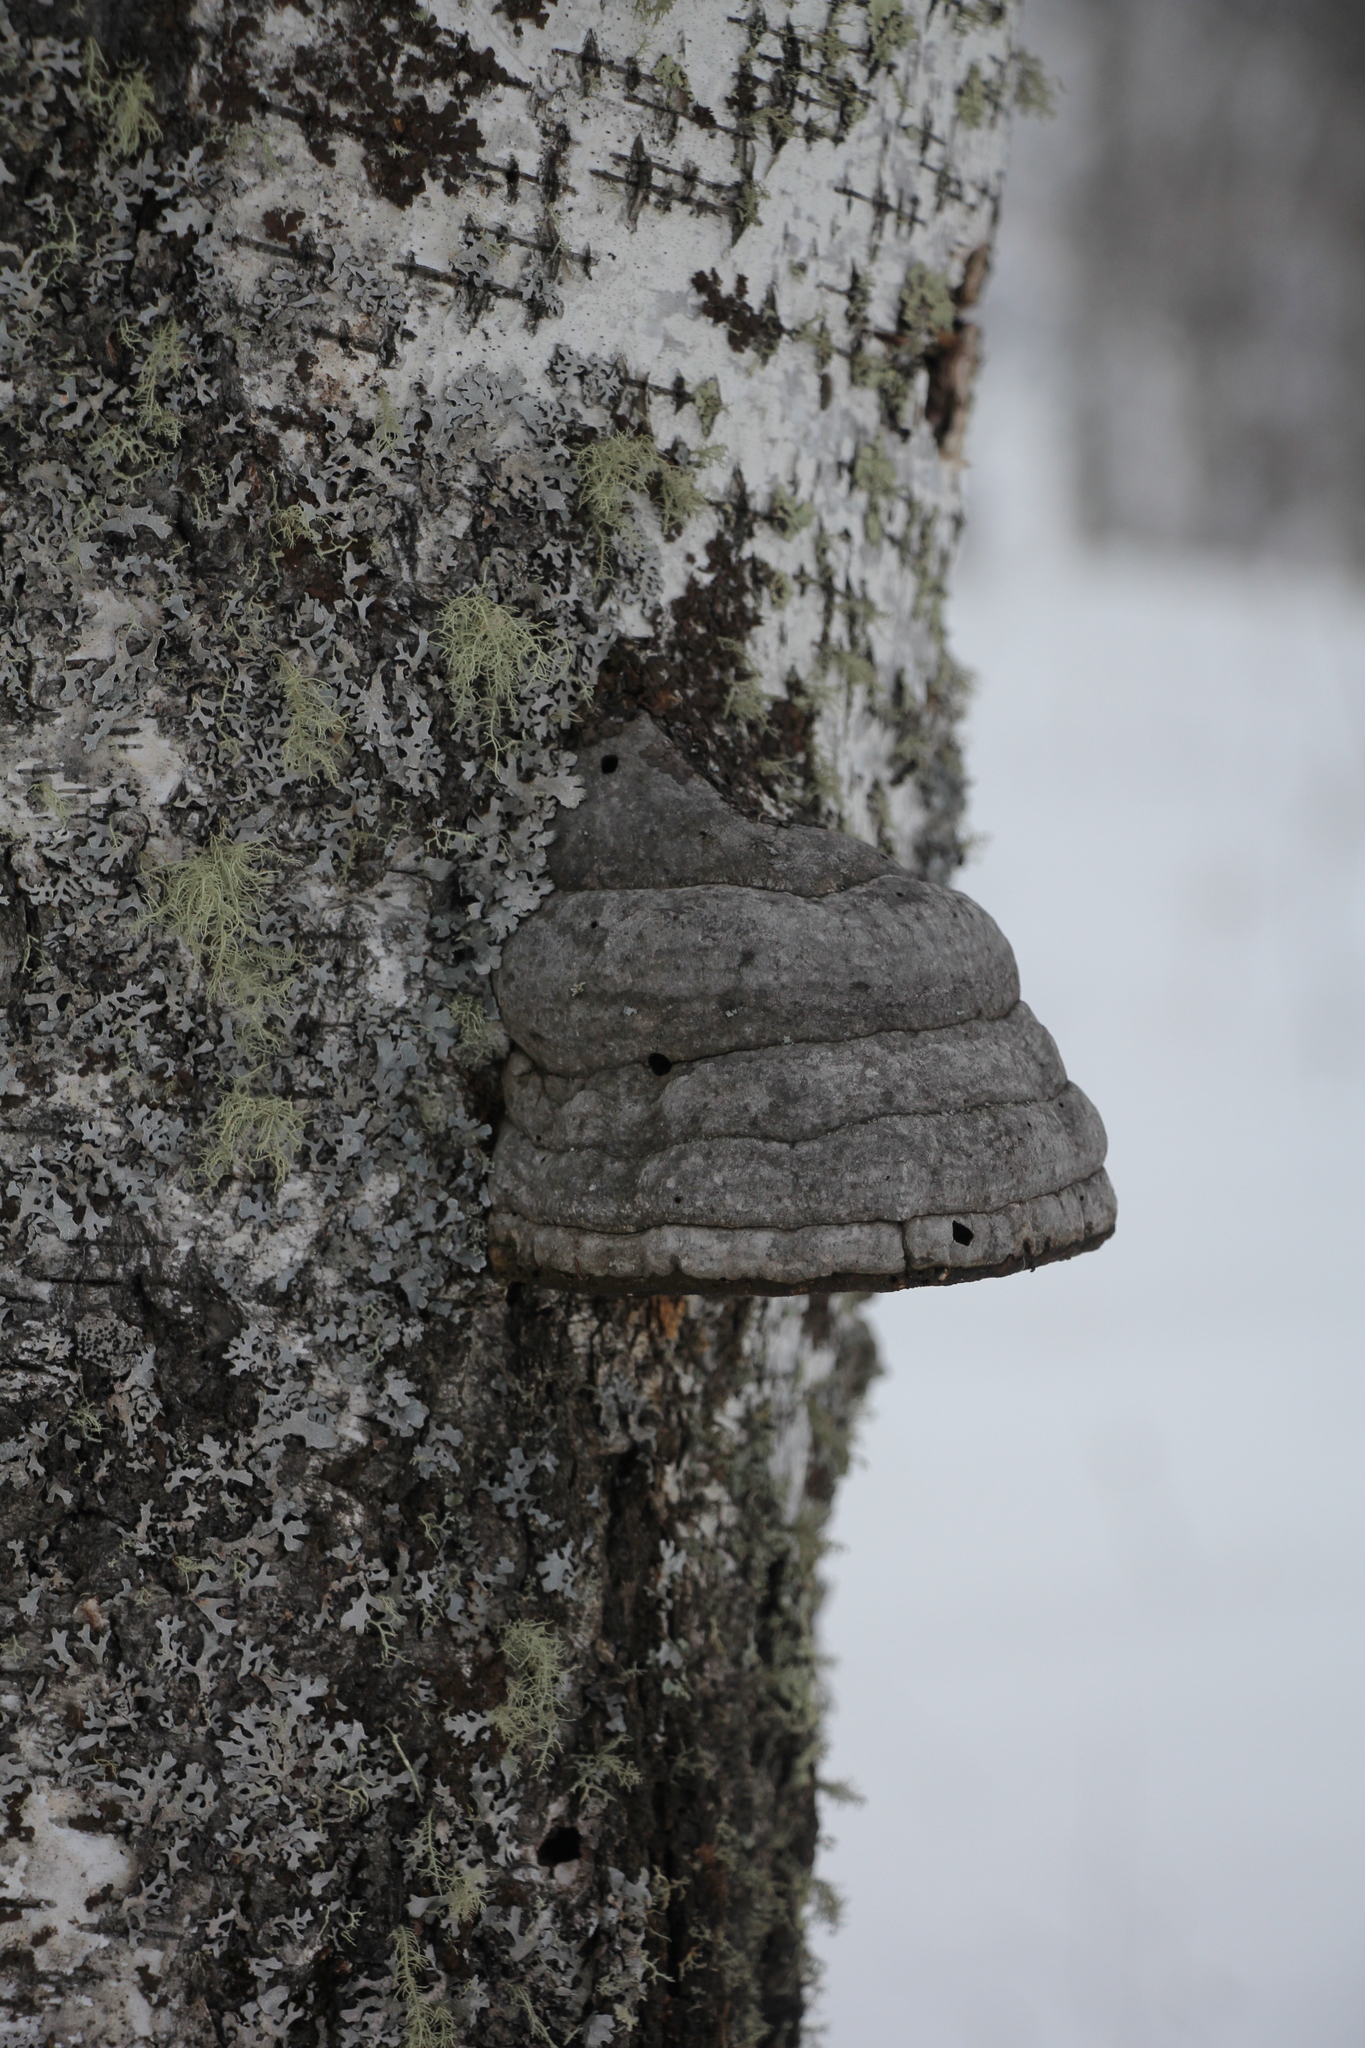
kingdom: Fungi
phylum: Basidiomycota
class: Agaricomycetes
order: Polyporales
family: Polyporaceae
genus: Fomes
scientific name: Fomes fomentarius
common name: Hoof fungus
